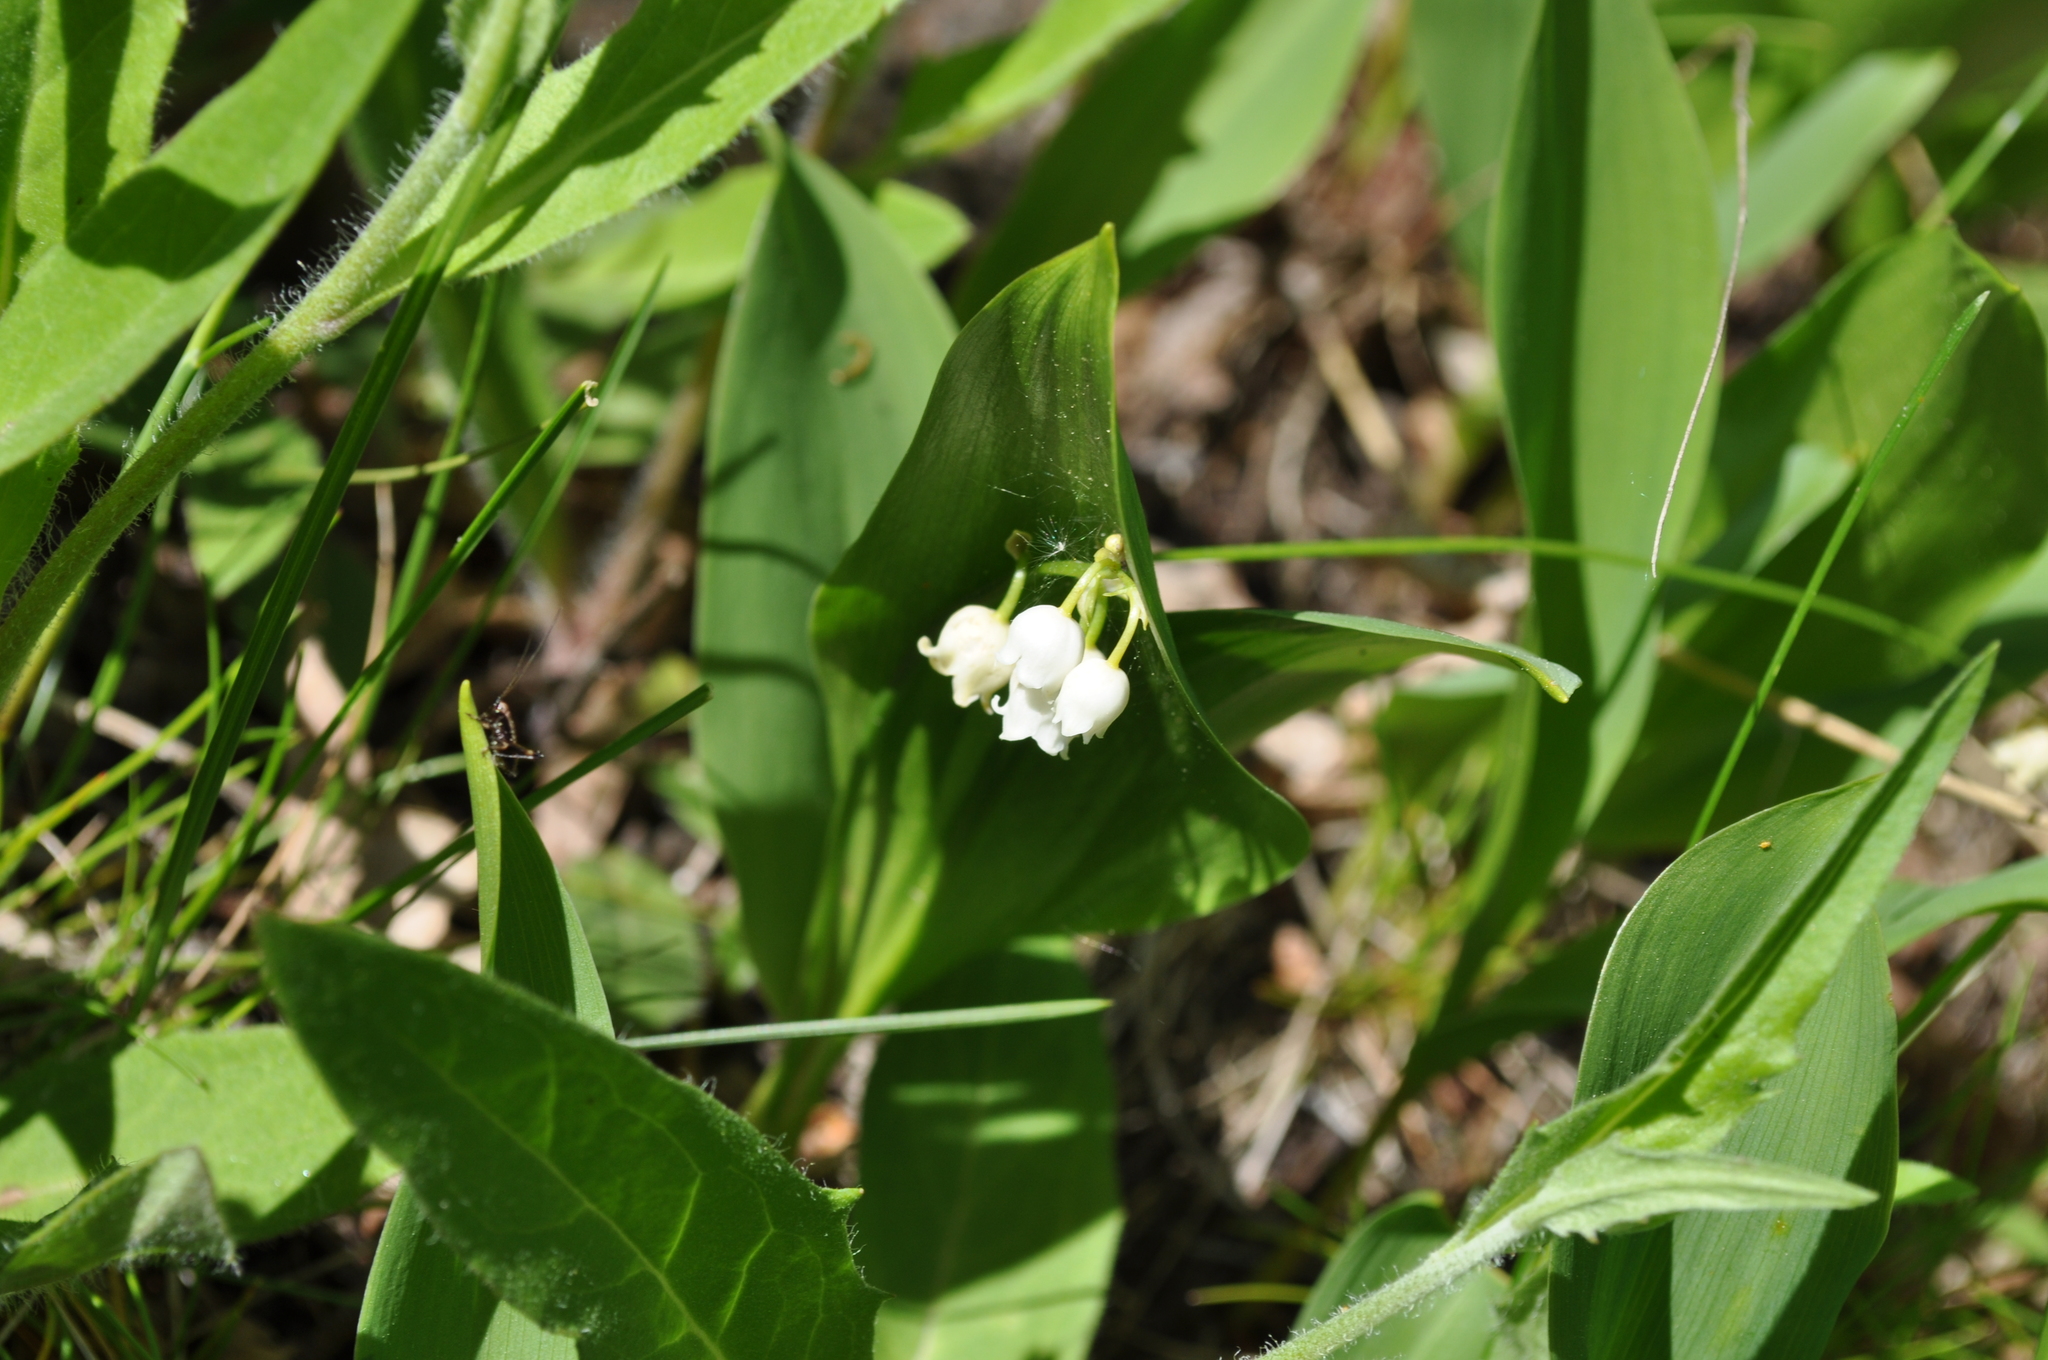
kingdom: Plantae
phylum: Tracheophyta
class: Liliopsida
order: Asparagales
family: Asparagaceae
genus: Convallaria
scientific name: Convallaria majalis
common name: Lily-of-the-valley
